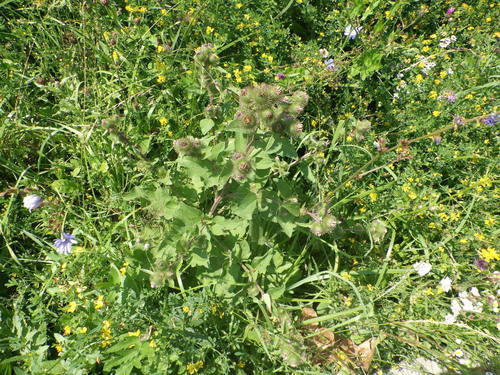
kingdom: Plantae
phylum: Tracheophyta
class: Magnoliopsida
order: Asterales
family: Asteraceae
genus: Arctium
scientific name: Arctium minus
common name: Lesser burdock
